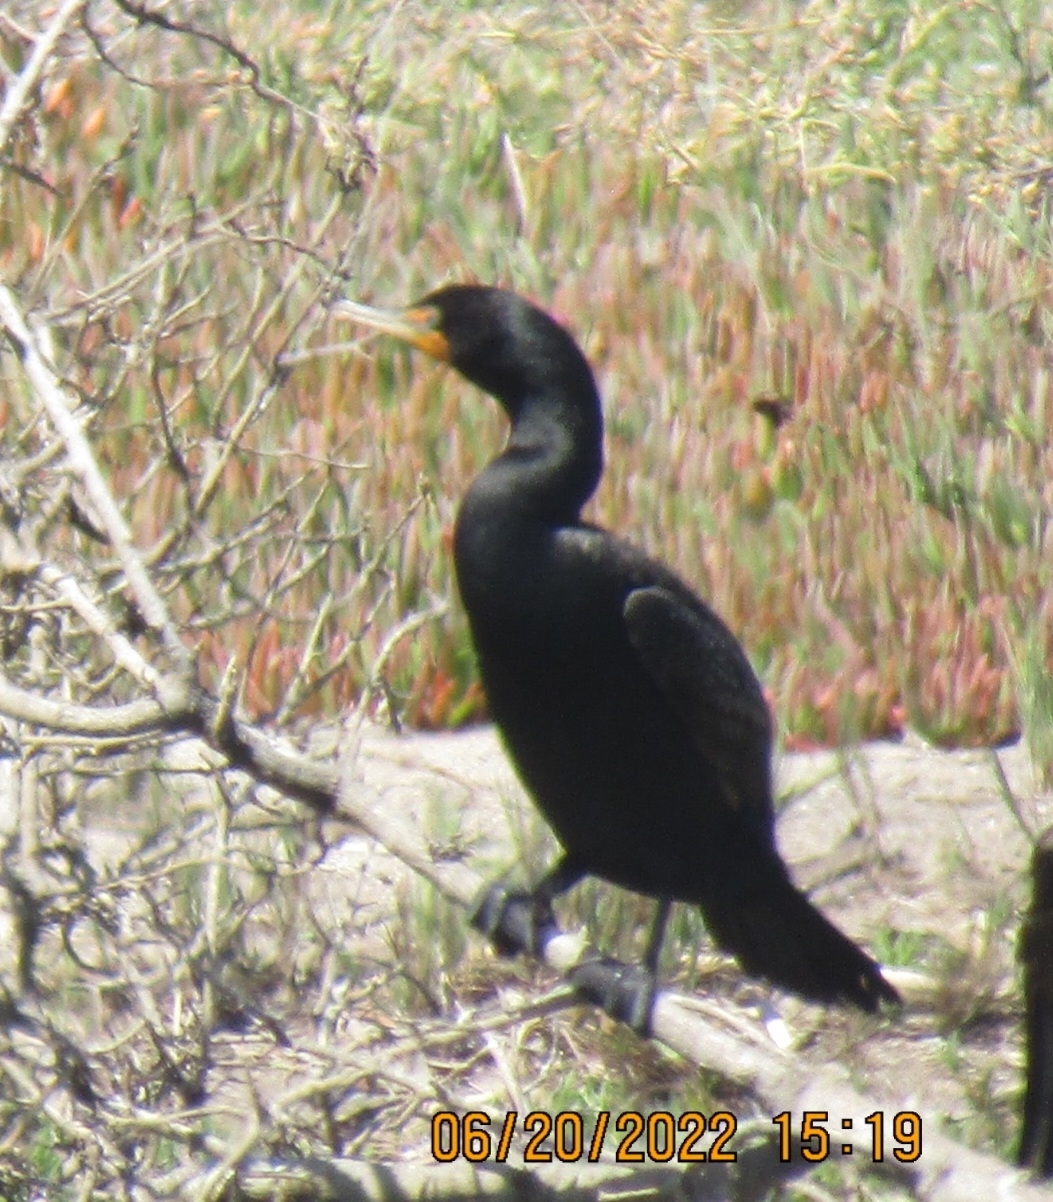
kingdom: Animalia
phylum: Chordata
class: Aves
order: Suliformes
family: Phalacrocoracidae
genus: Phalacrocorax
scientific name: Phalacrocorax auritus
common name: Double-crested cormorant
